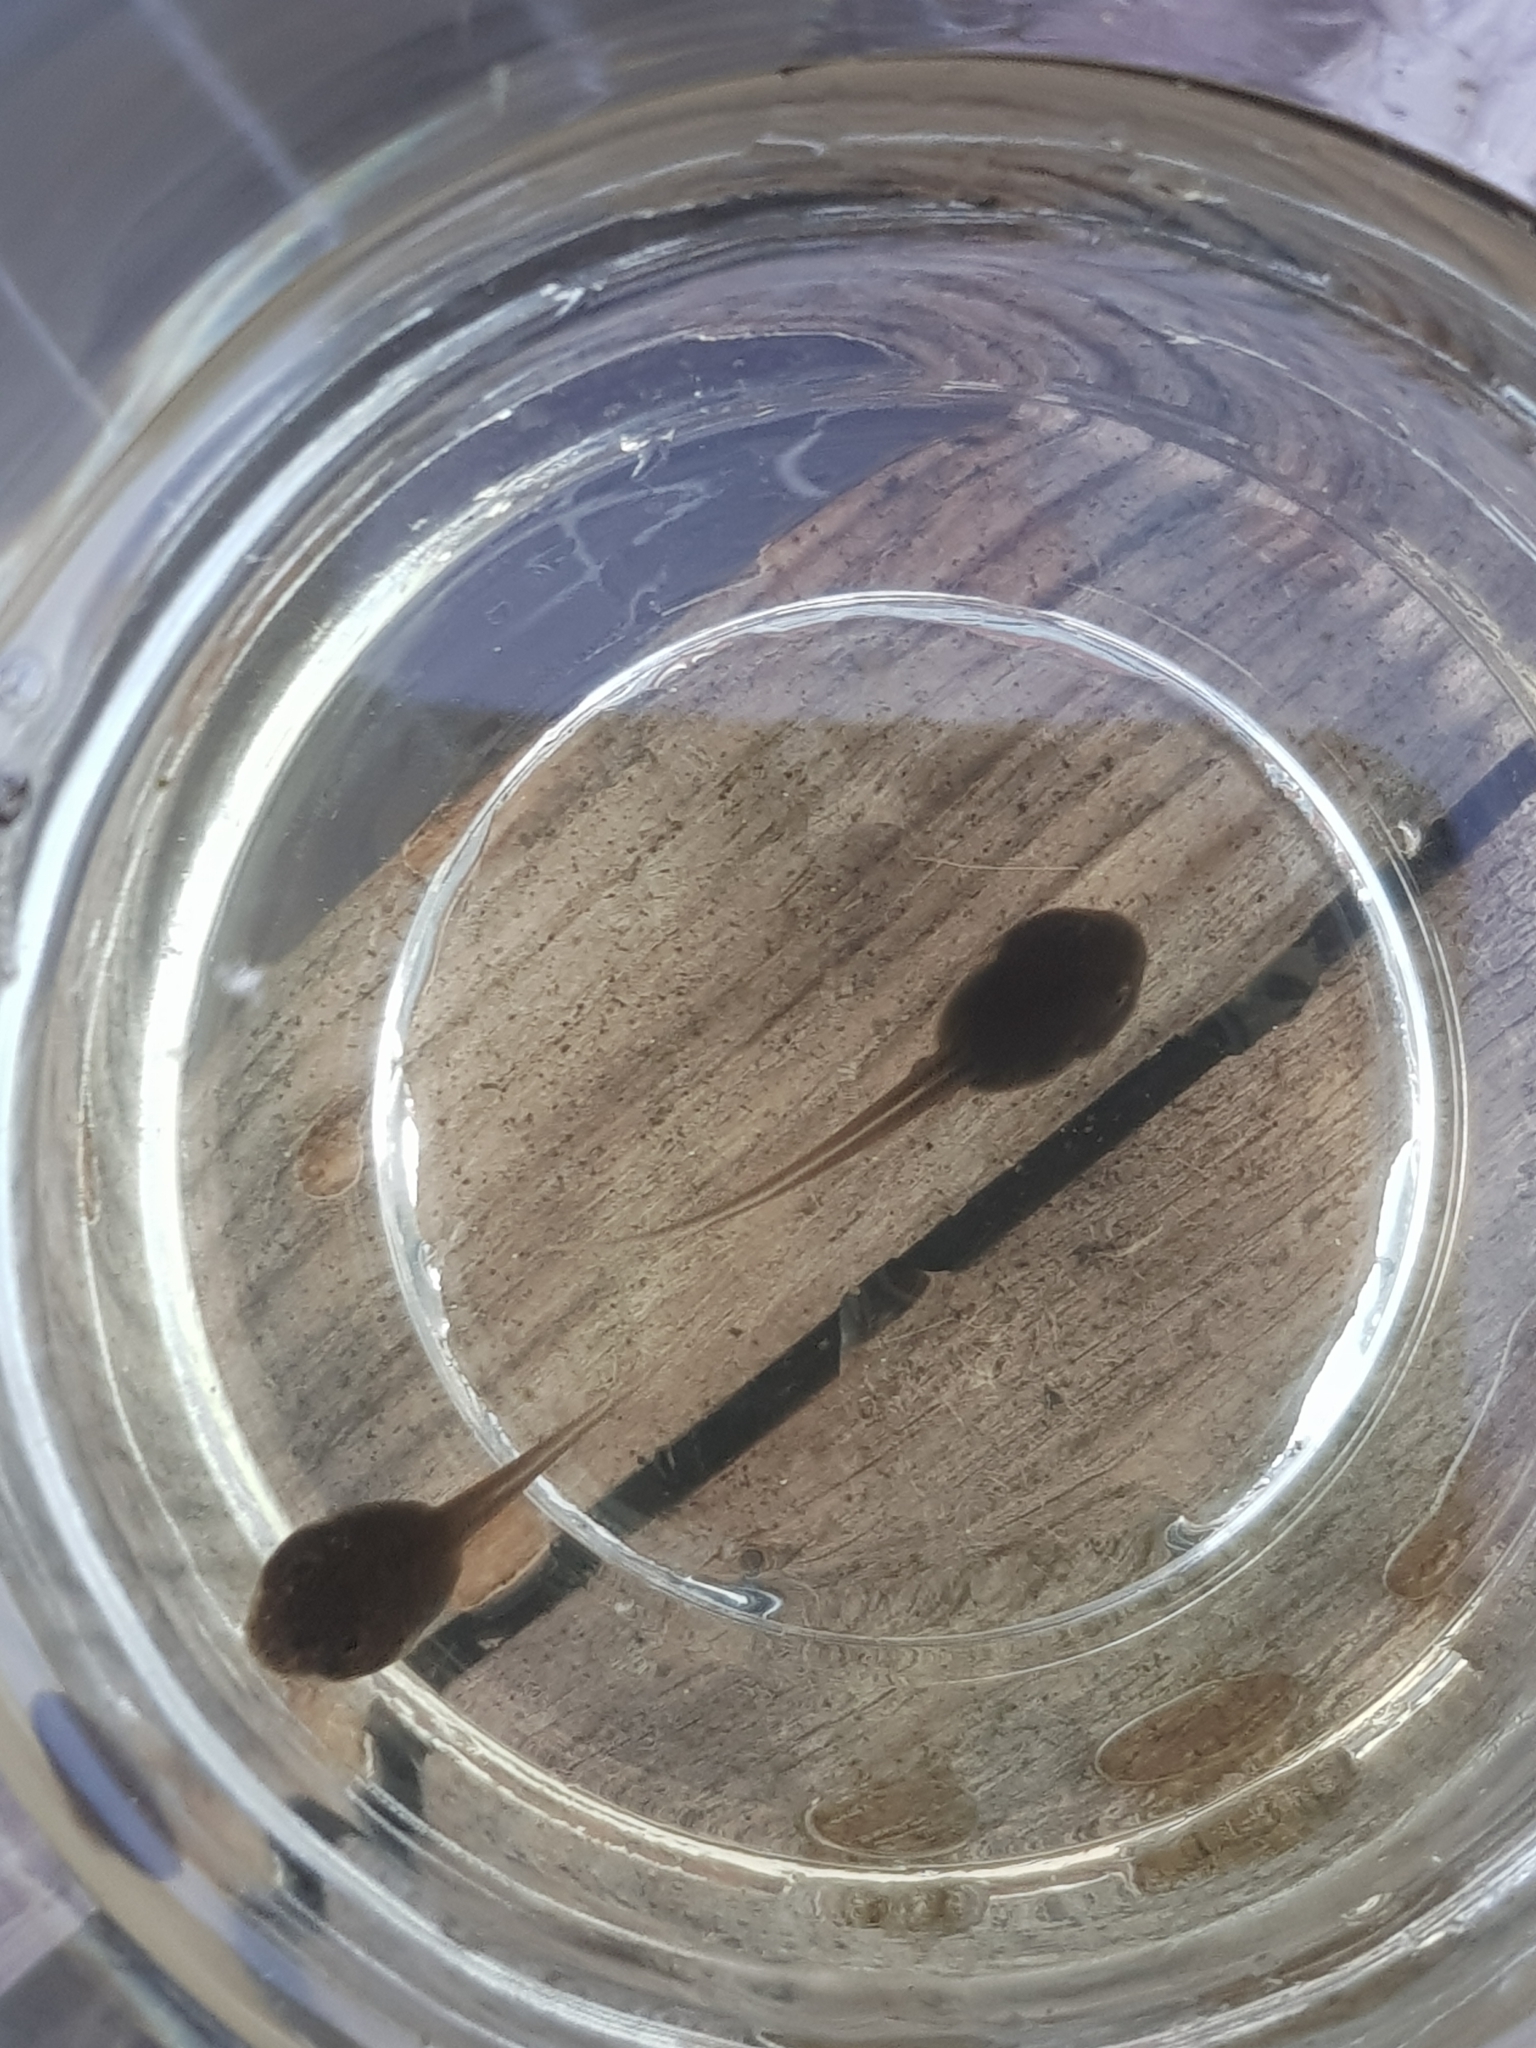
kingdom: Animalia
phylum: Chordata
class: Amphibia
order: Anura
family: Ranidae
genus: Rana
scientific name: Rana temporaria
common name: Common frog
